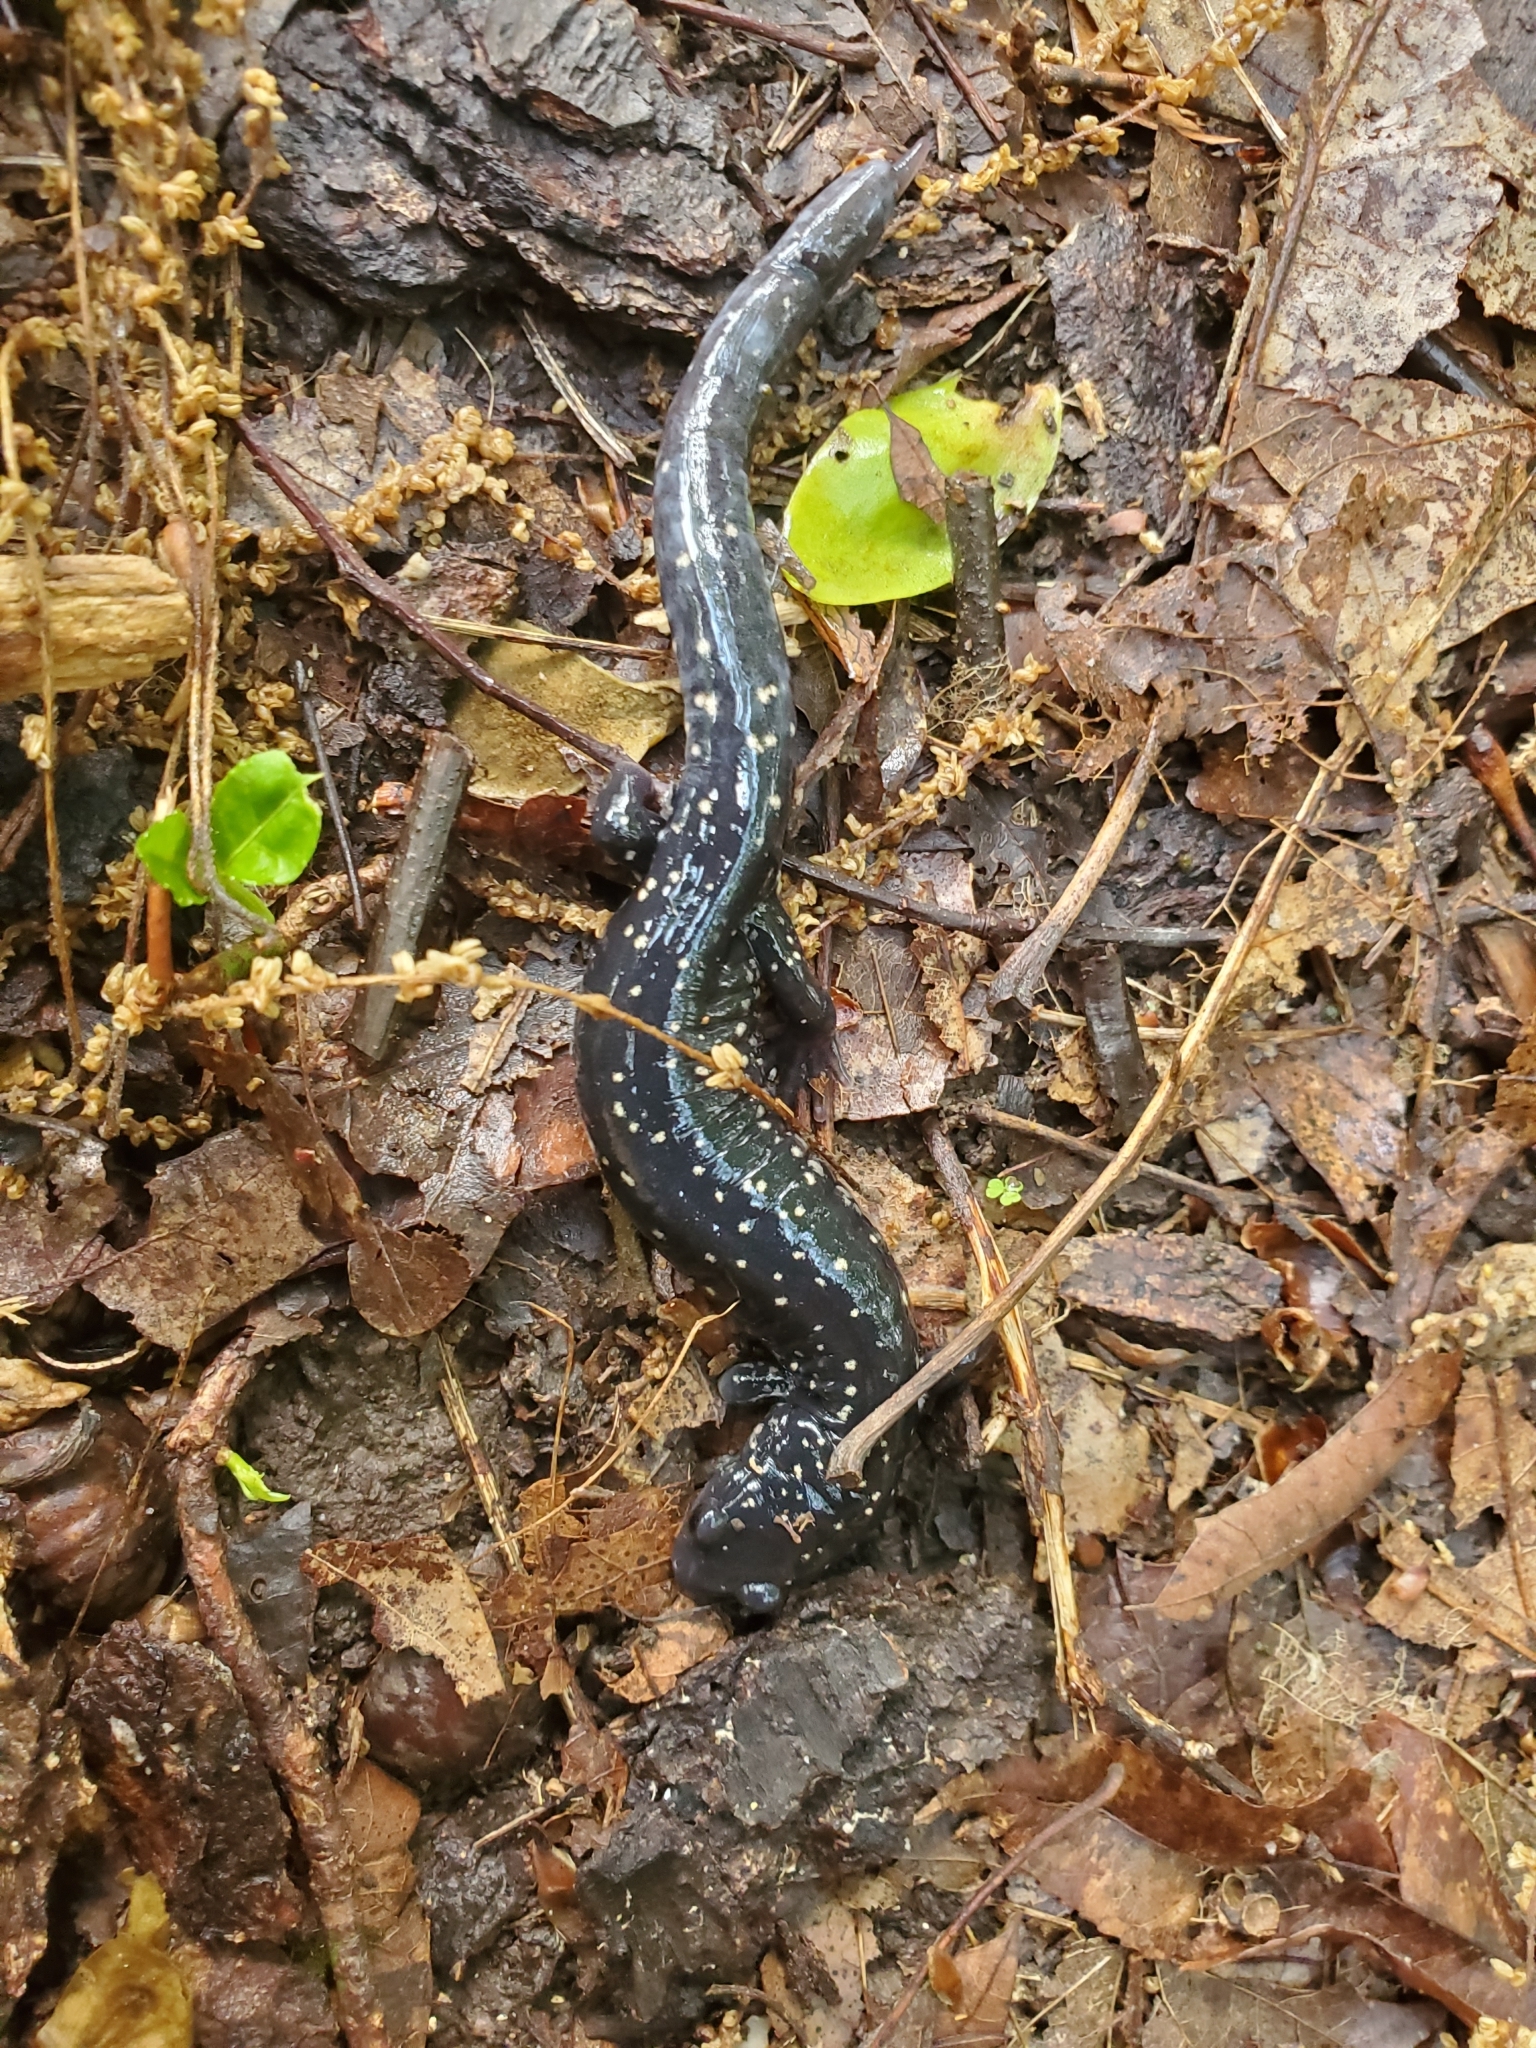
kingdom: Animalia
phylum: Chordata
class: Amphibia
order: Caudata
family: Plethodontidae
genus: Plethodon
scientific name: Plethodon glutinosus
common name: Northern slimy salamander
